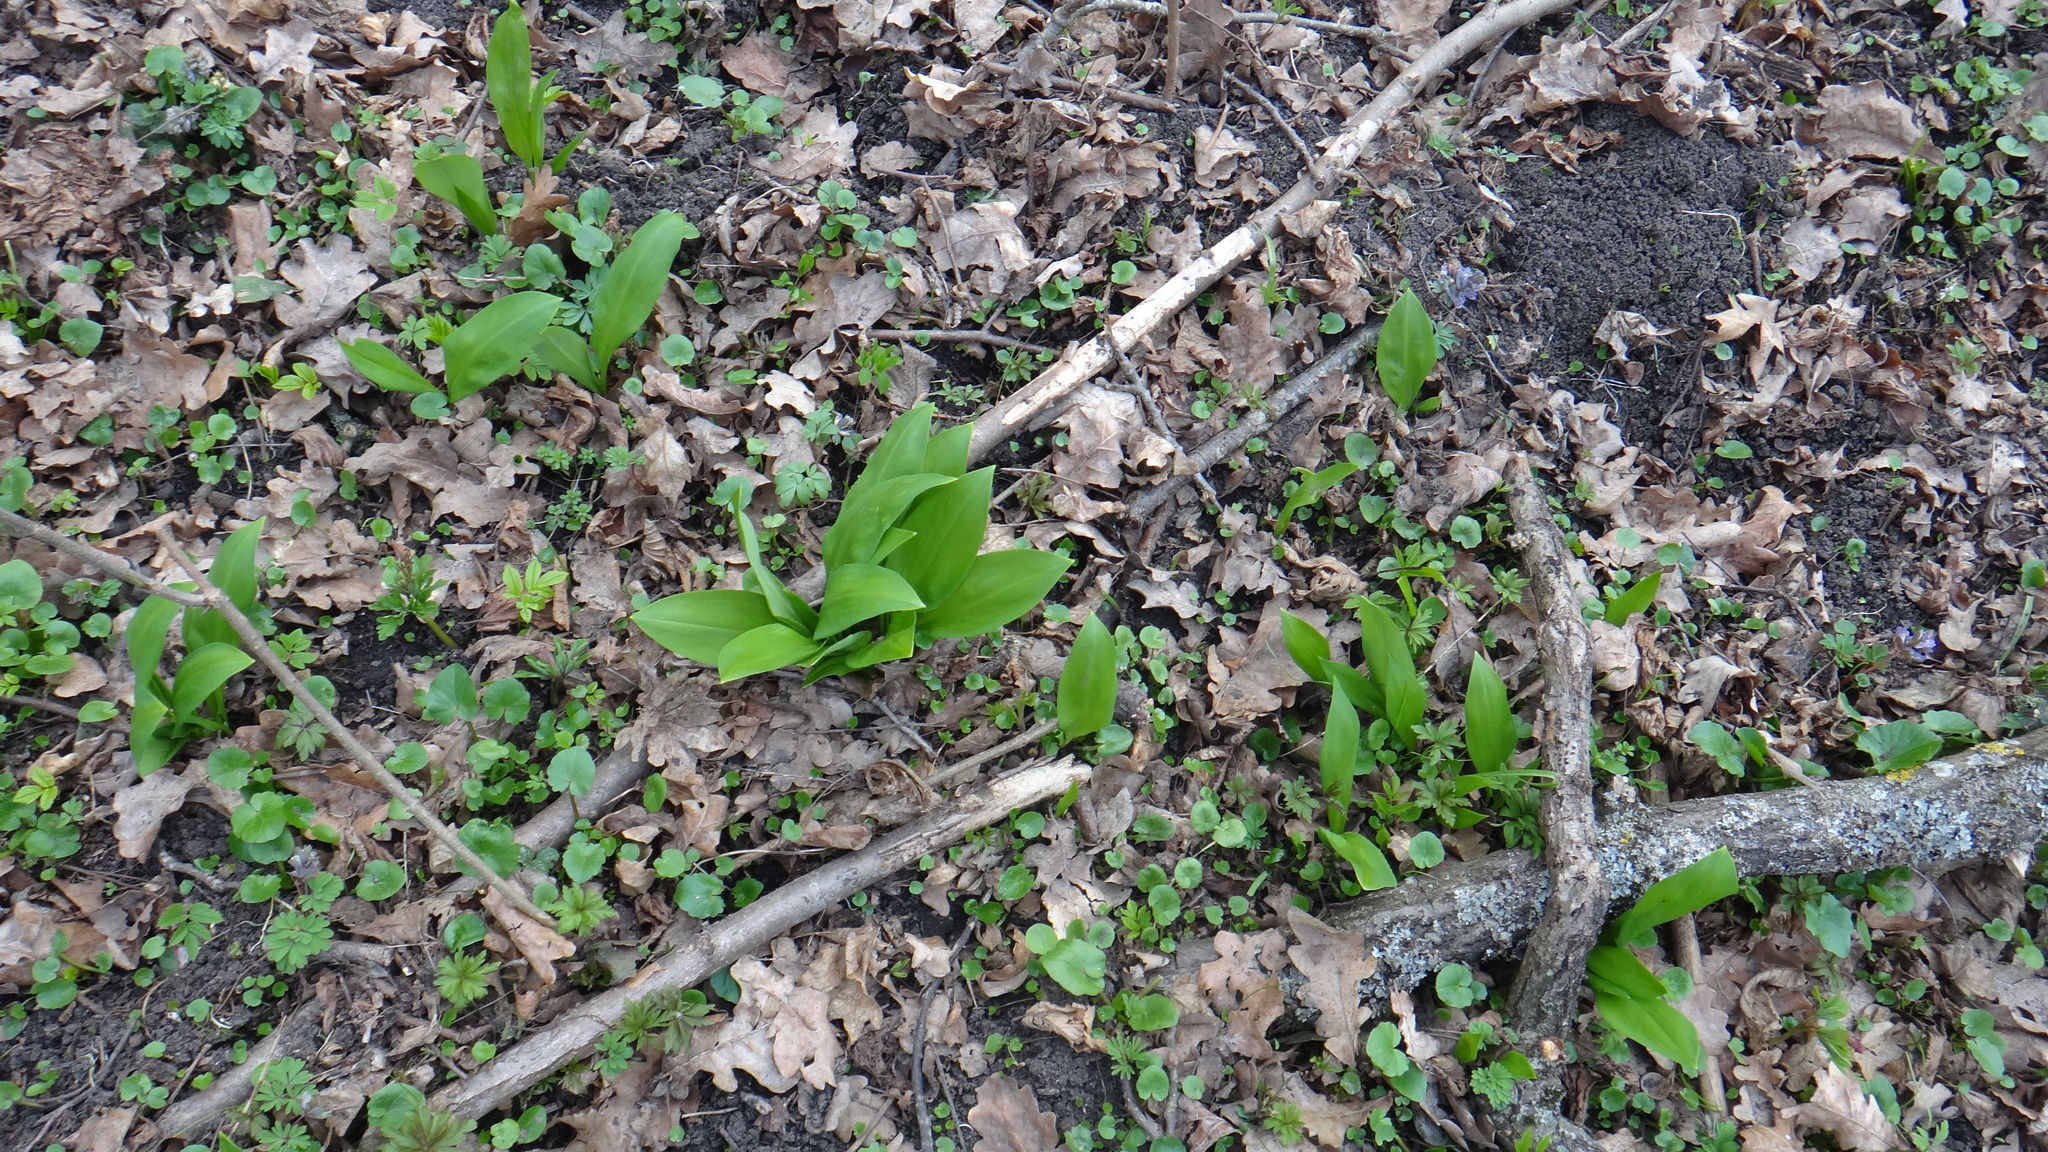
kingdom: Plantae
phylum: Tracheophyta
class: Liliopsida
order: Asparagales
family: Amaryllidaceae
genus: Allium
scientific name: Allium ursinum
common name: Ramsons
